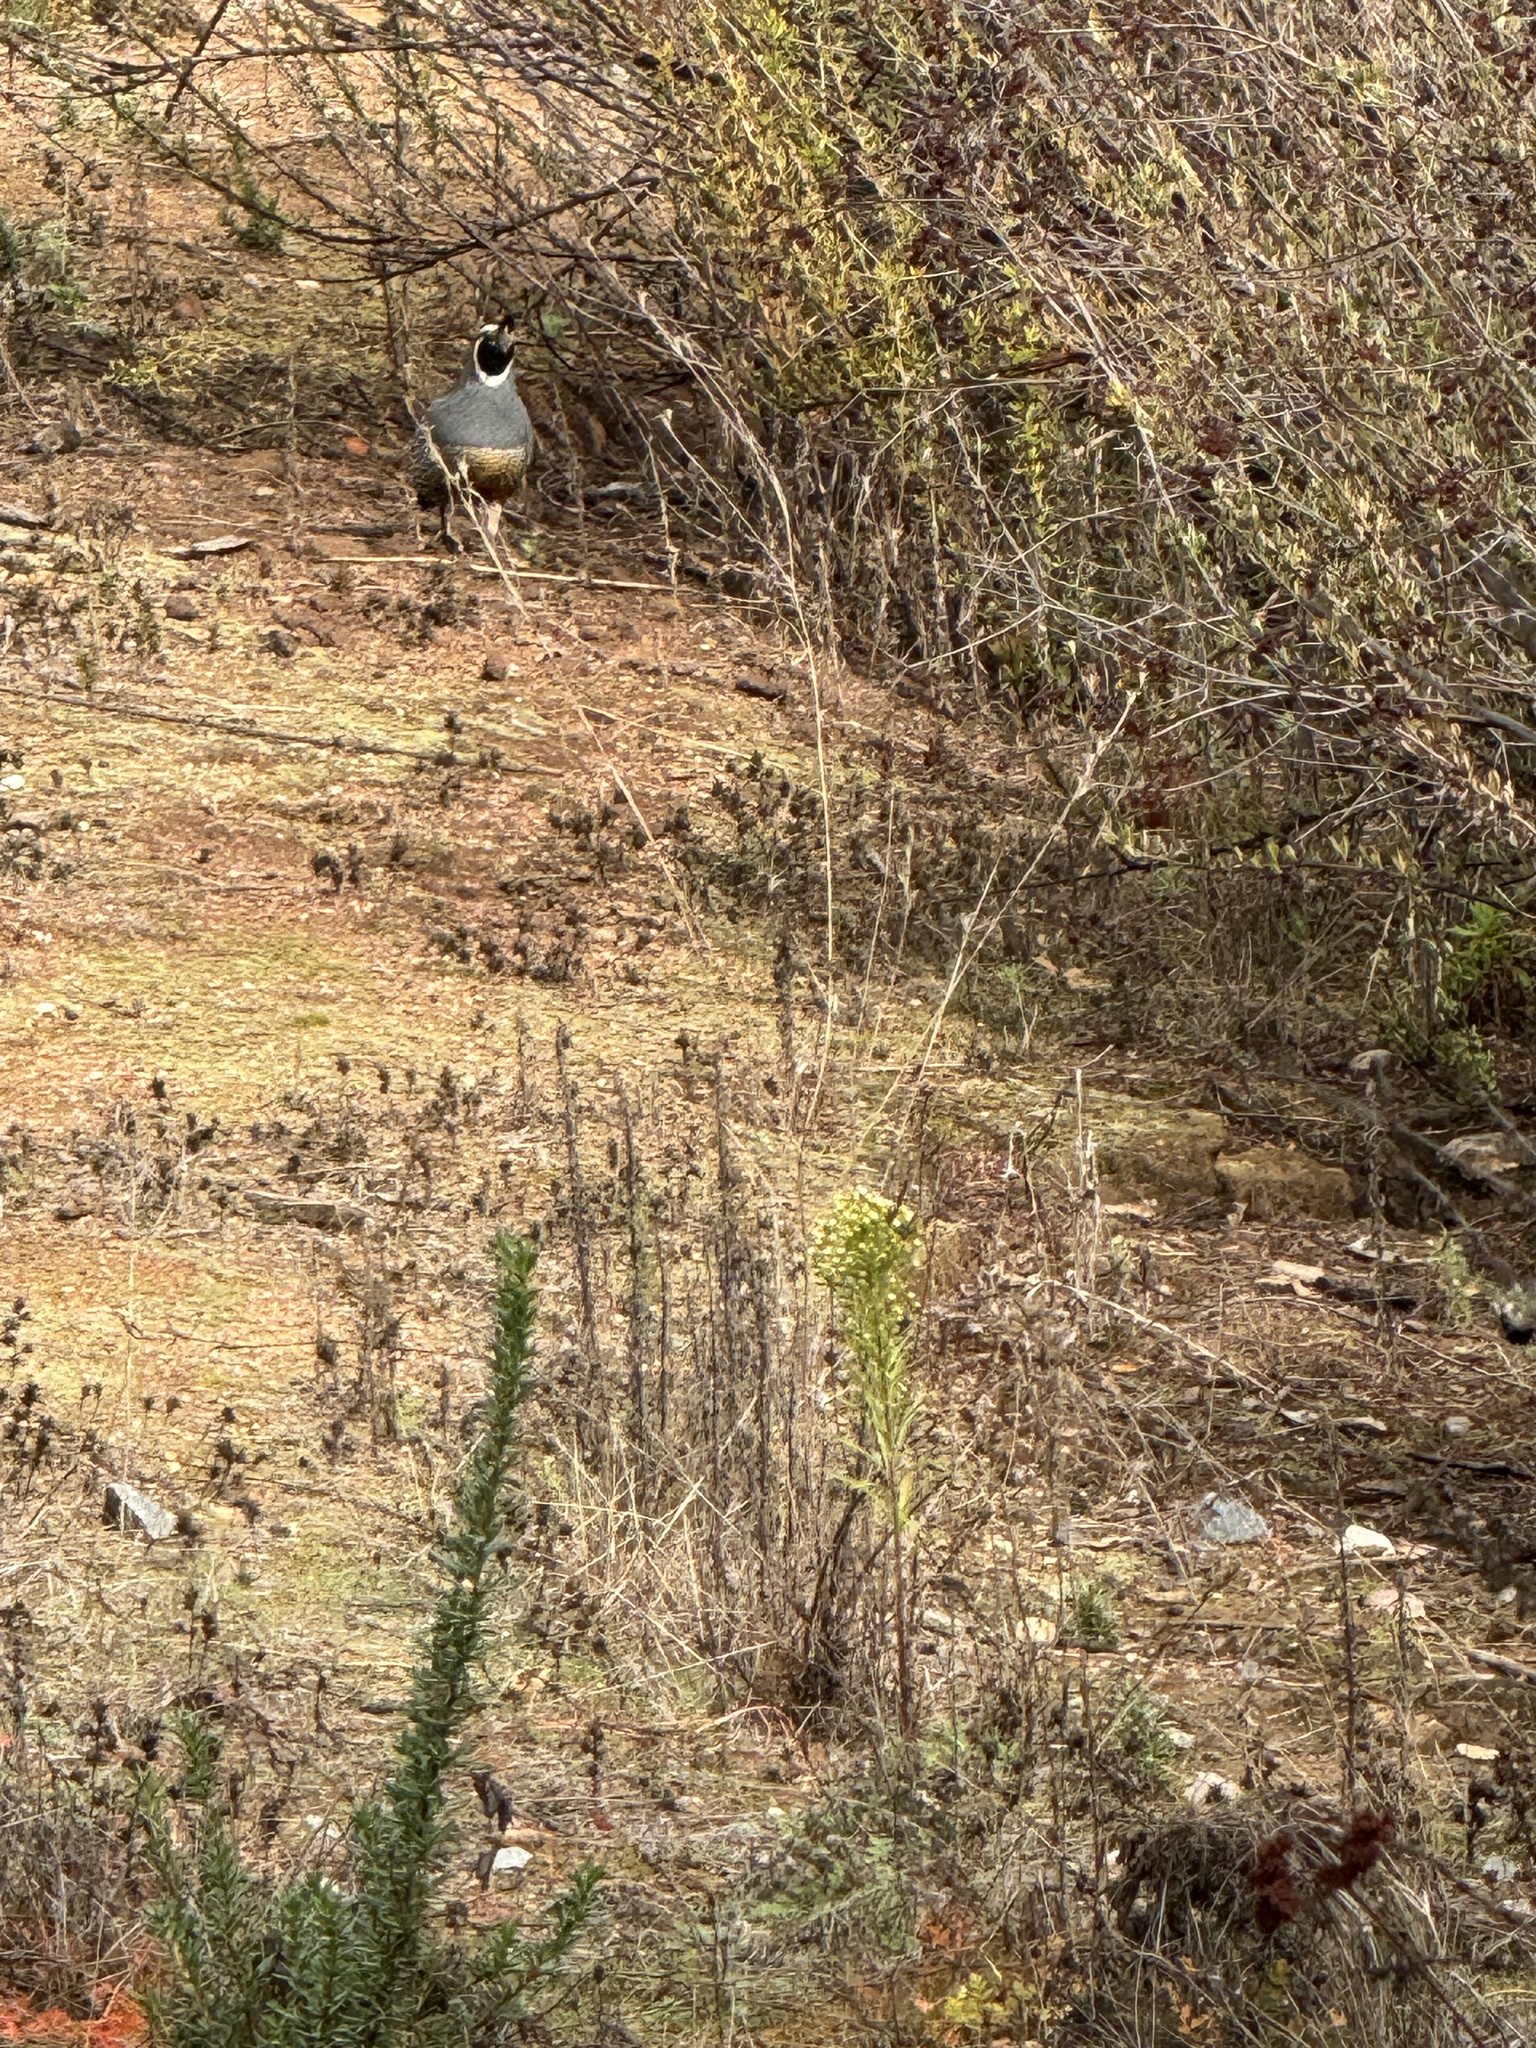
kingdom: Animalia
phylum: Chordata
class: Aves
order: Galliformes
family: Odontophoridae
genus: Callipepla
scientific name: Callipepla californica
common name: California quail
